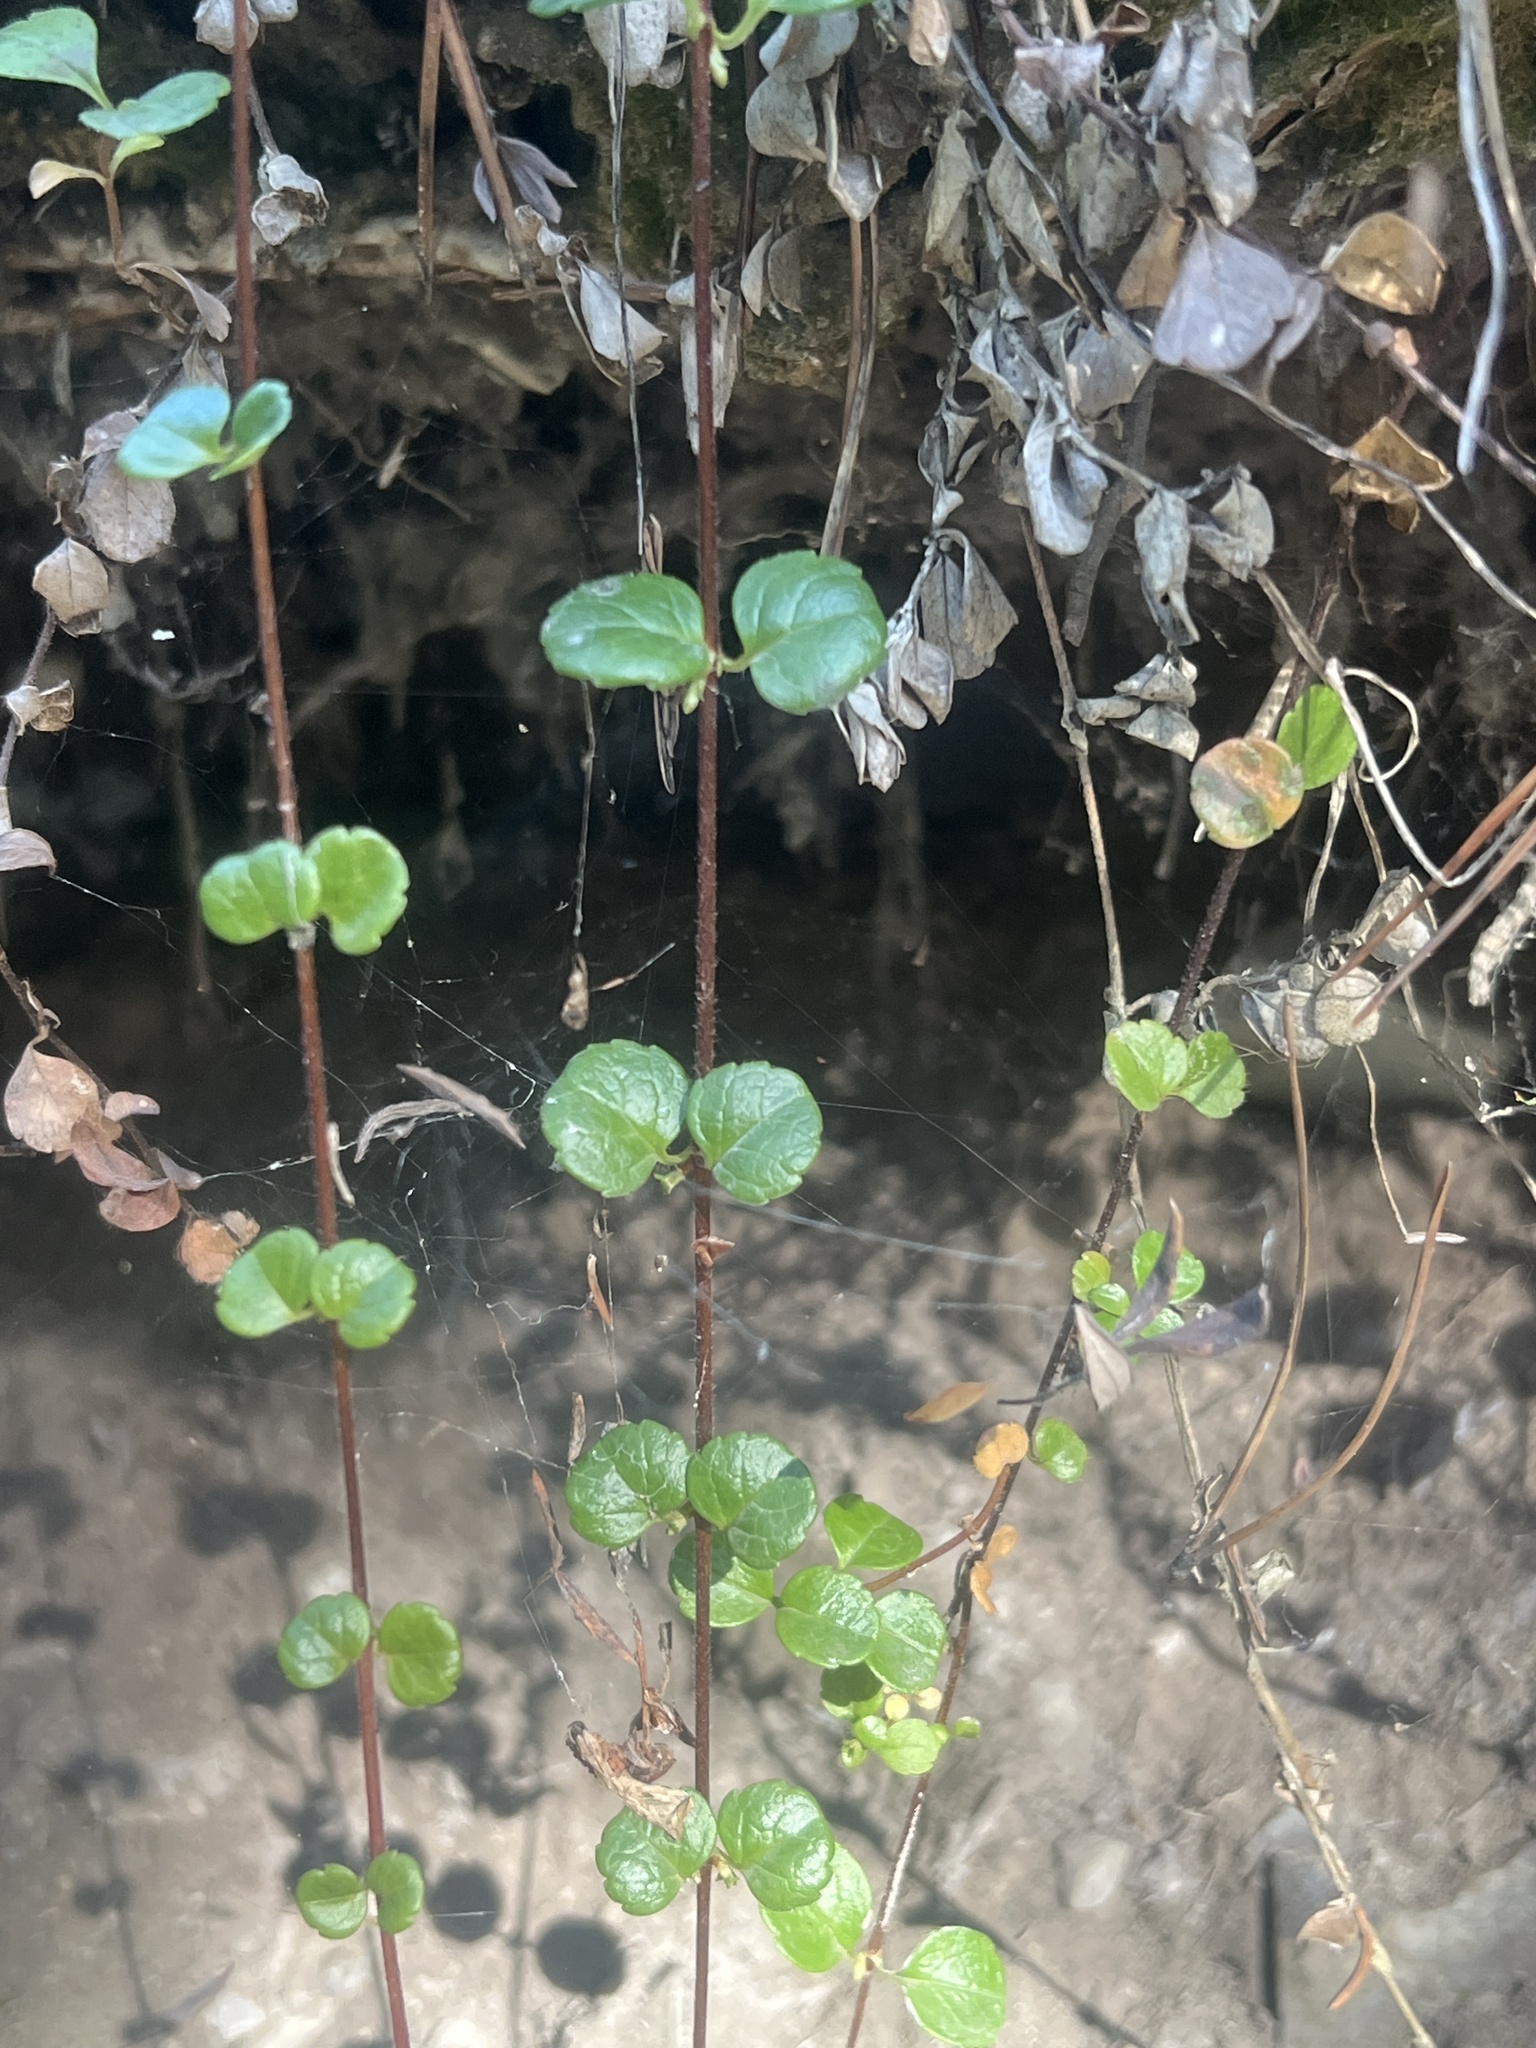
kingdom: Plantae
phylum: Tracheophyta
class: Magnoliopsida
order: Dipsacales
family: Caprifoliaceae
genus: Linnaea
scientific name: Linnaea borealis
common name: Twinflower
